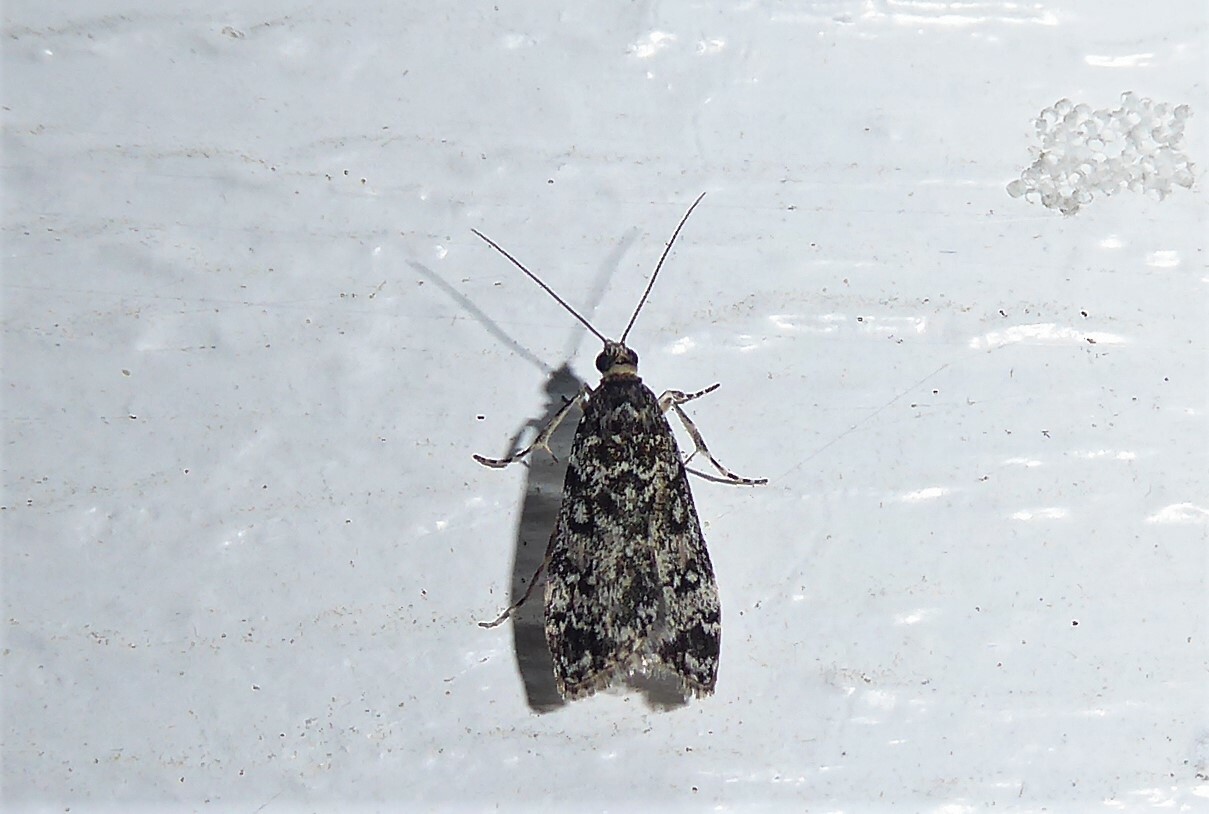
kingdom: Animalia
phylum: Arthropoda
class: Insecta
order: Lepidoptera
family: Crambidae
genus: Eudonia
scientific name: Eudonia philerga
